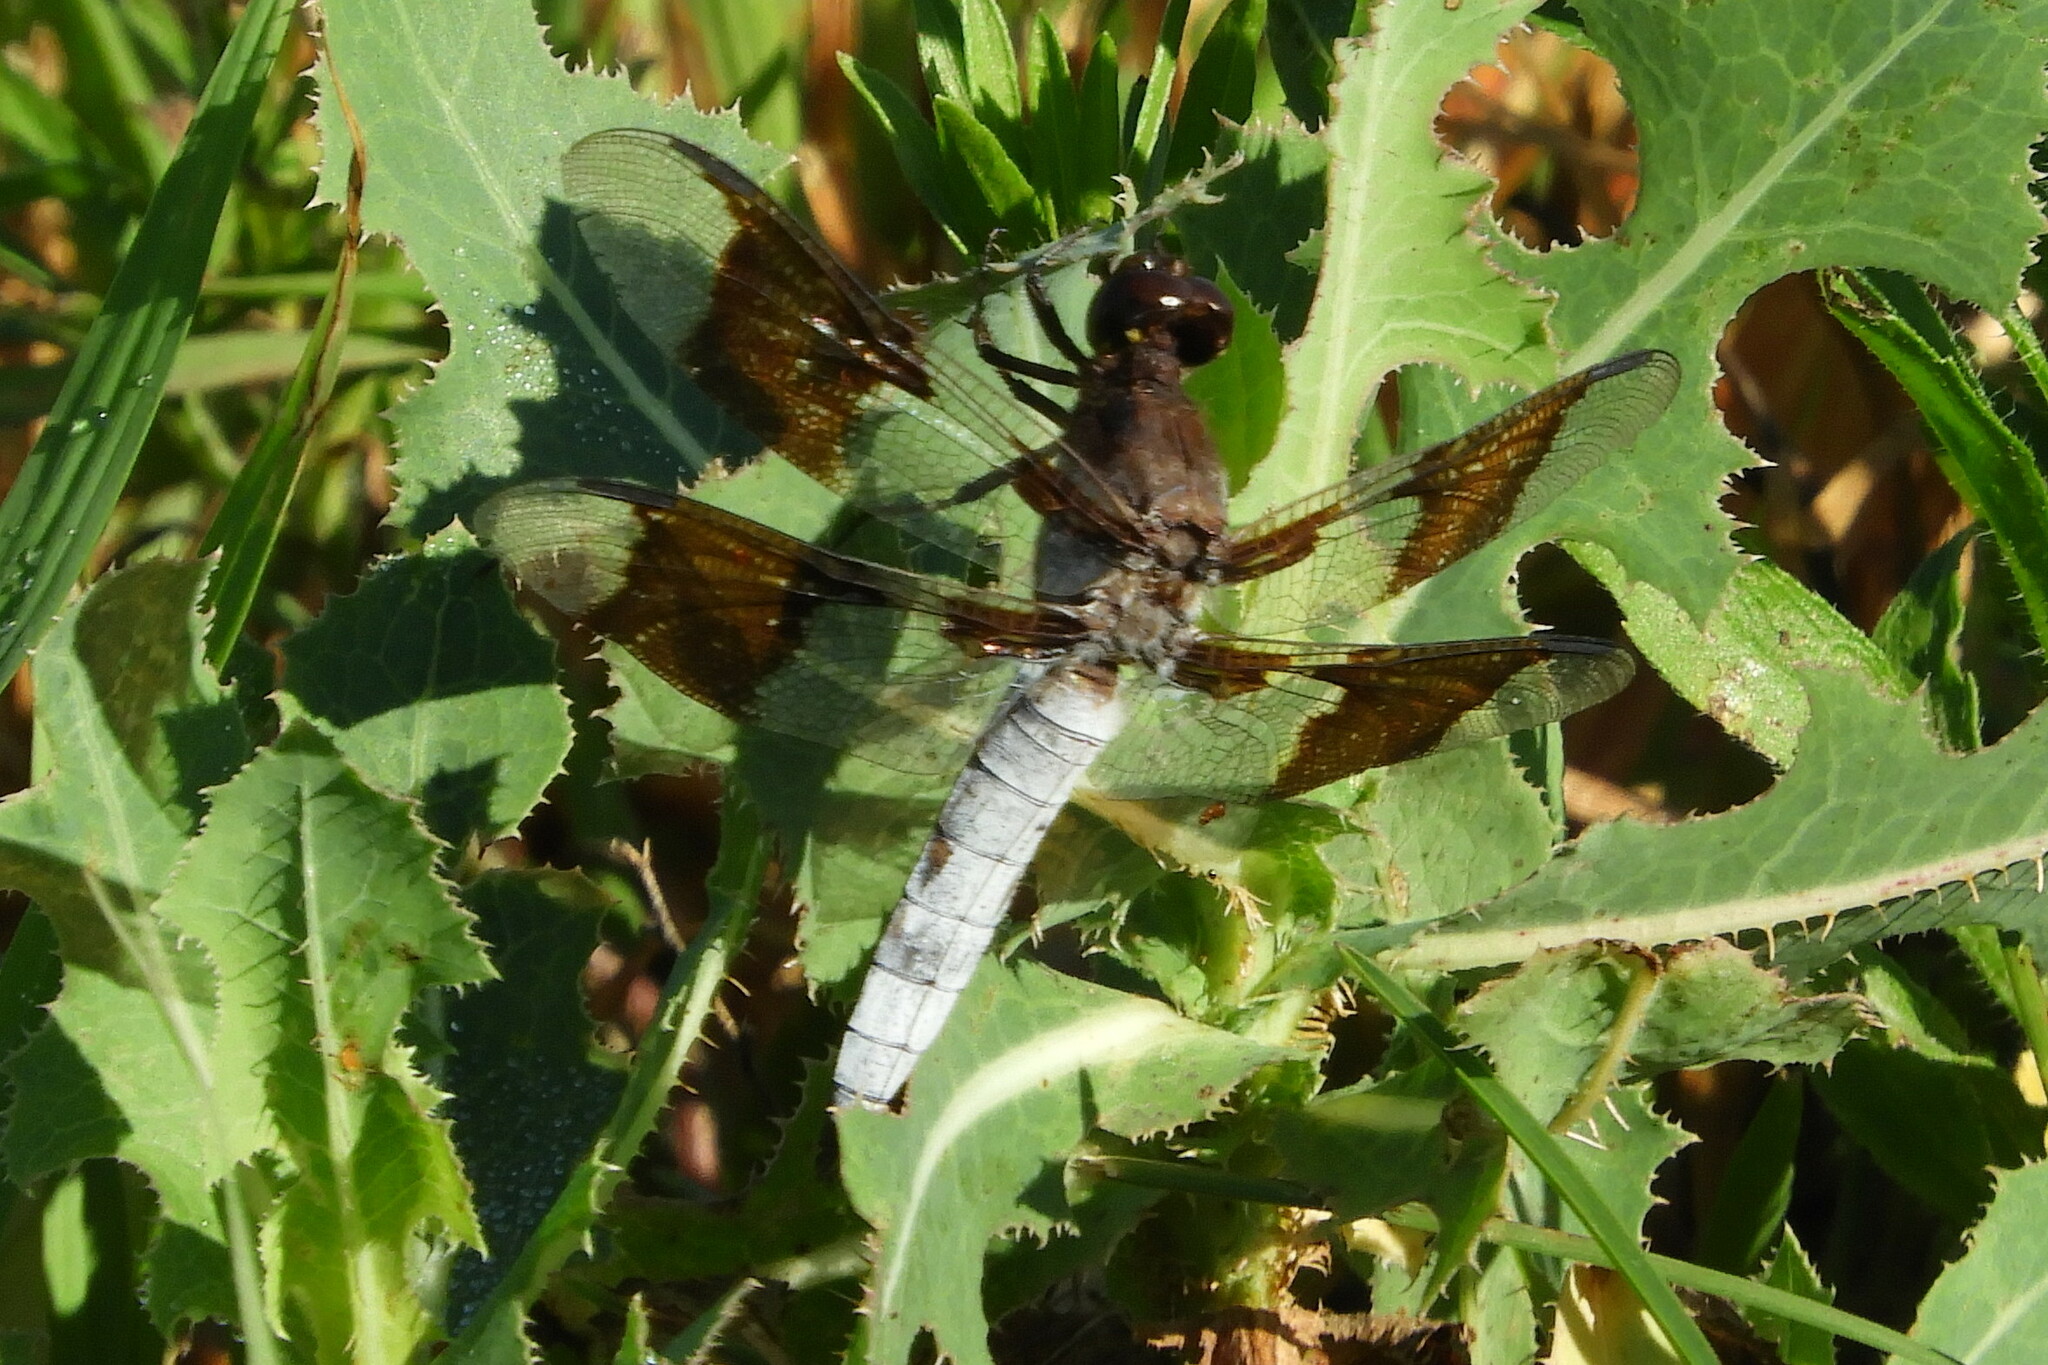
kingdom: Animalia
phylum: Arthropoda
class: Insecta
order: Odonata
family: Libellulidae
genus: Plathemis
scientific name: Plathemis lydia
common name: Common whitetail
